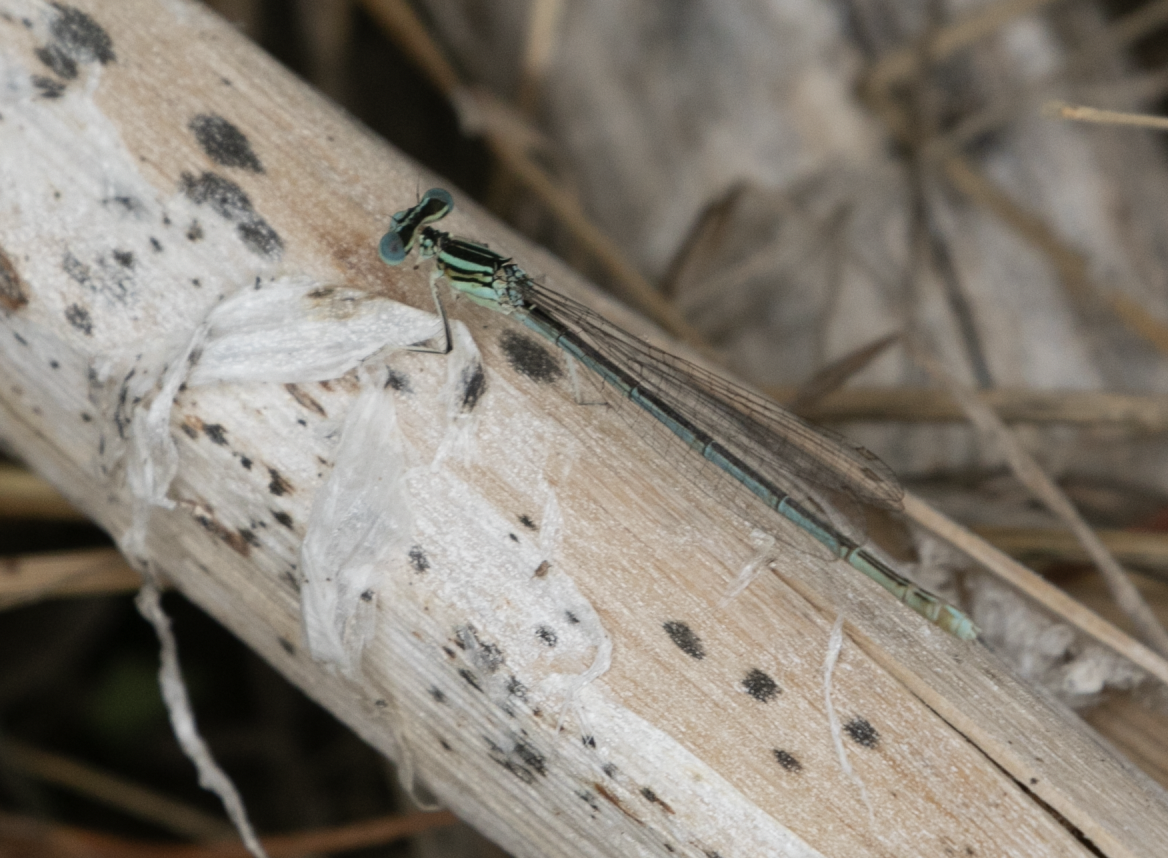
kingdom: Animalia
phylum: Arthropoda
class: Insecta
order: Odonata
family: Platycnemididae
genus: Platycnemis
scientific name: Platycnemis pennipes
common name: White-legged damselfly
